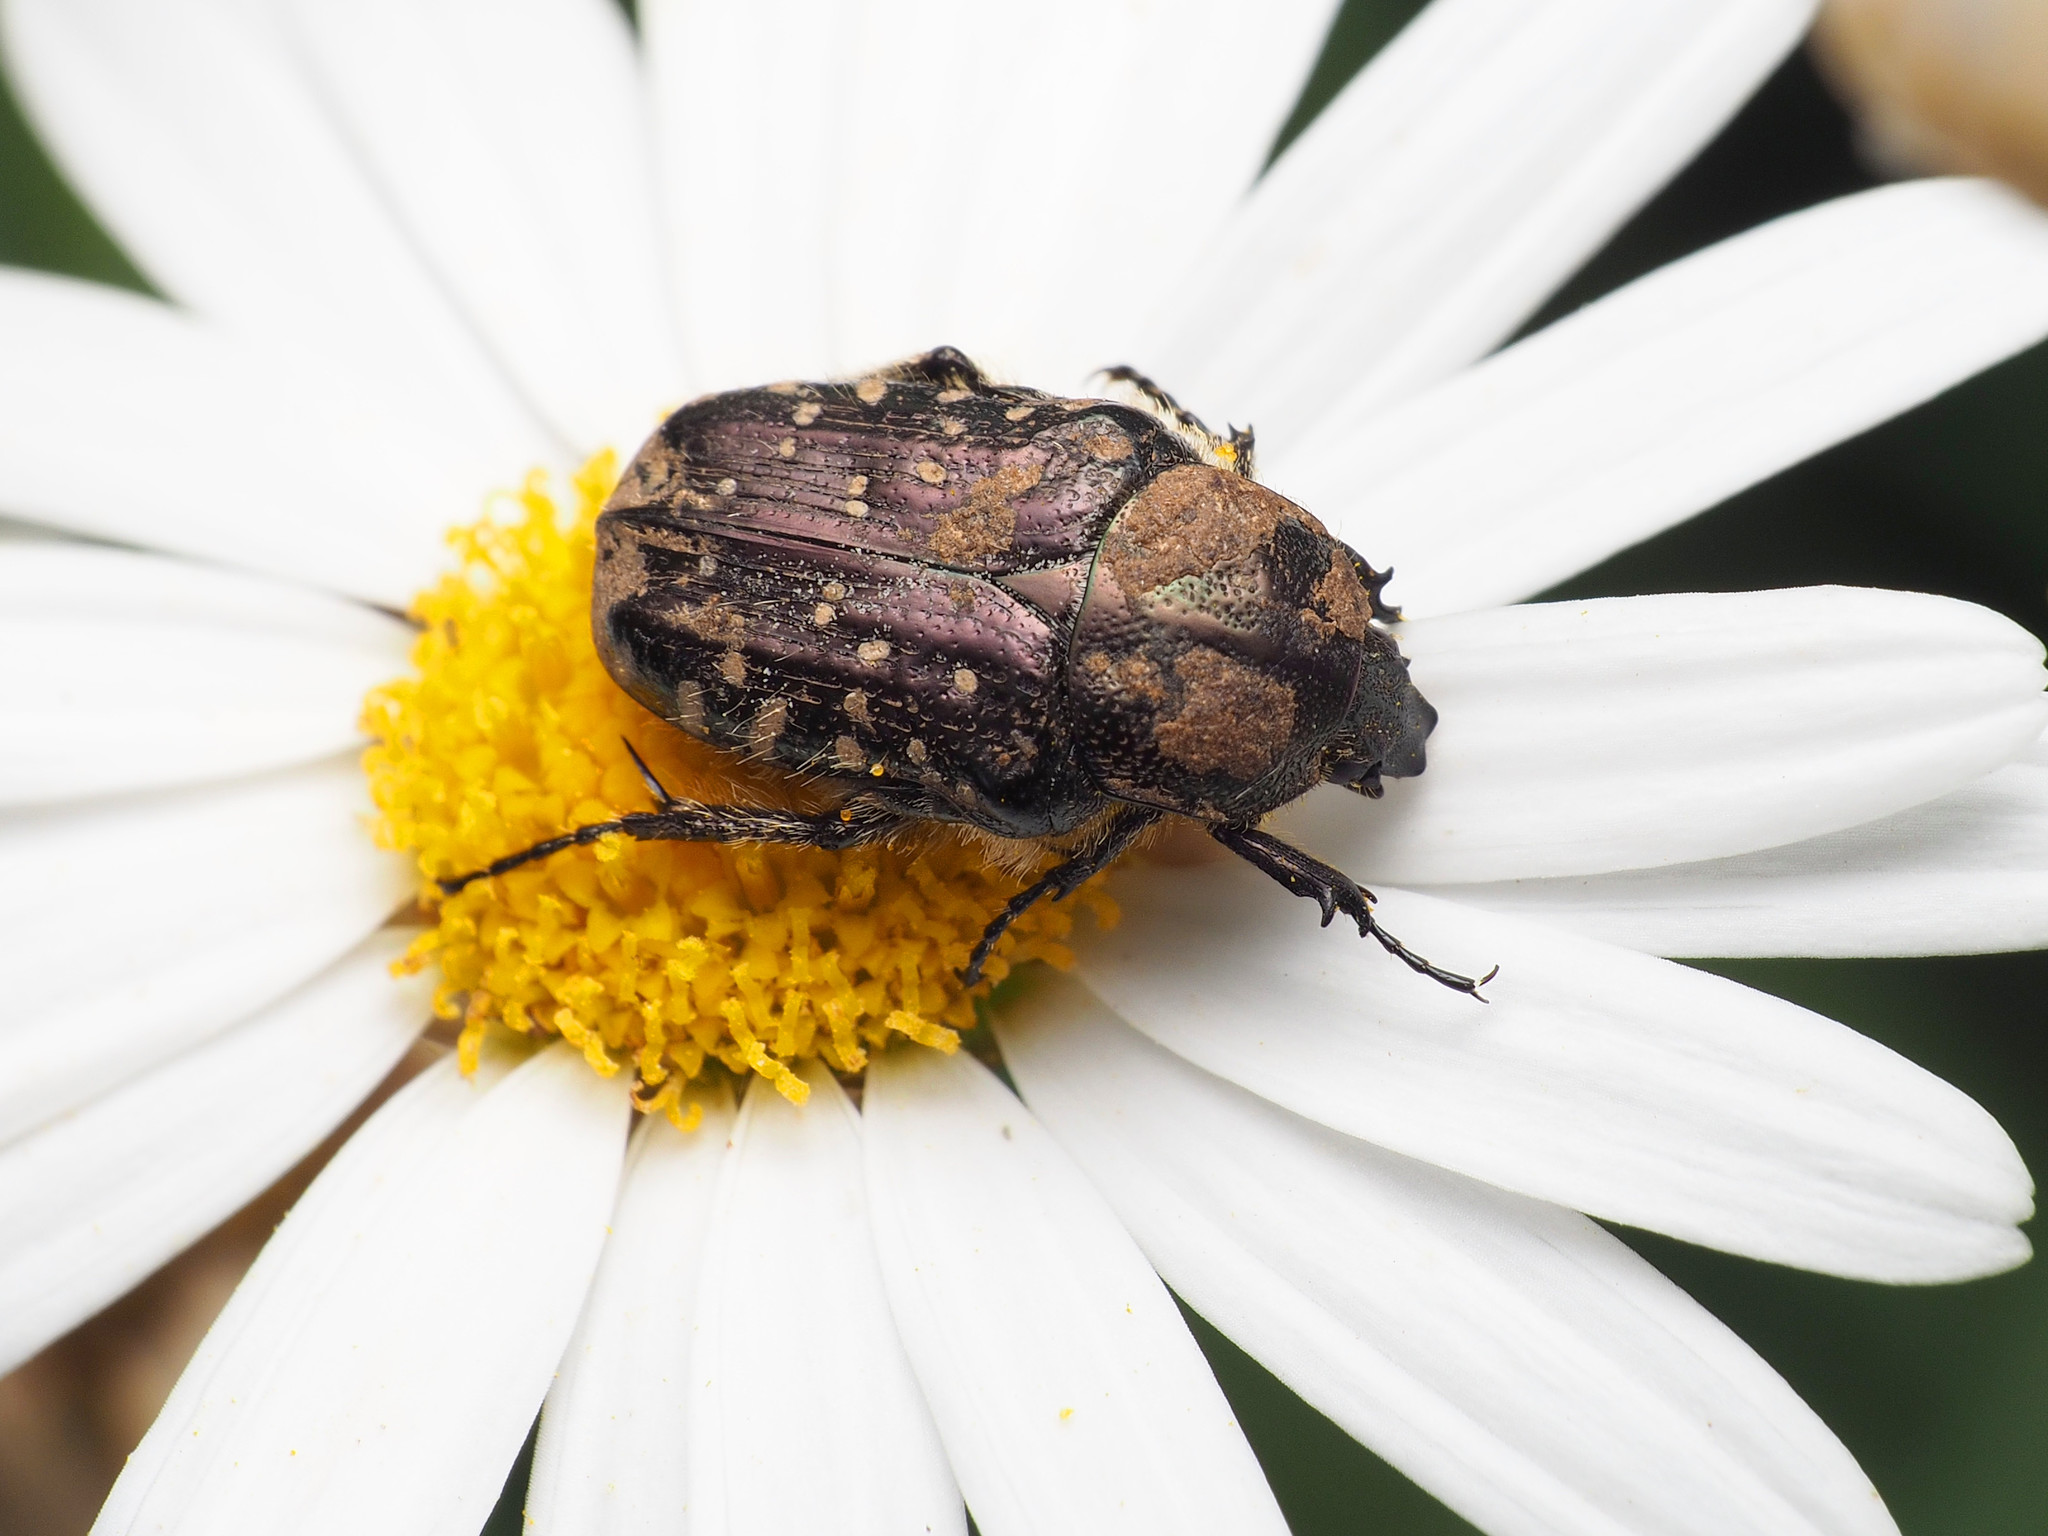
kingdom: Animalia
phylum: Arthropoda
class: Insecta
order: Coleoptera
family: Scarabaeidae
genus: Oxythyrea
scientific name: Oxythyrea funesta
